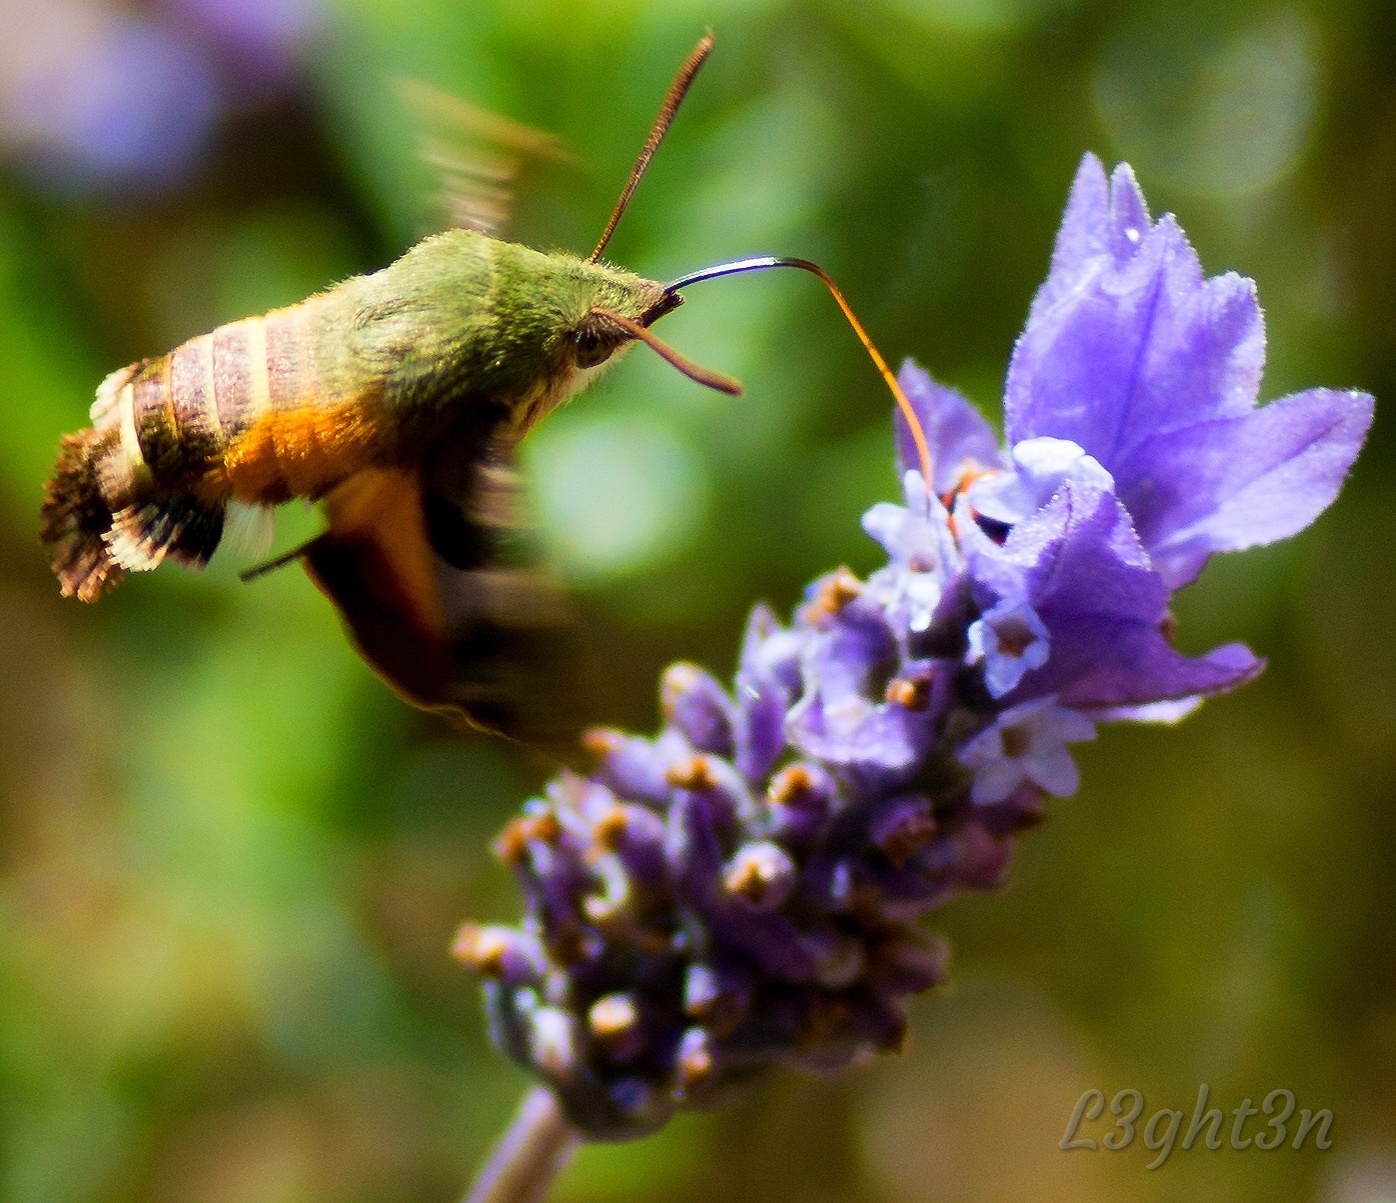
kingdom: Animalia
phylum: Arthropoda
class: Insecta
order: Lepidoptera
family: Sphingidae
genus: Macroglossum
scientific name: Macroglossum trochilus
